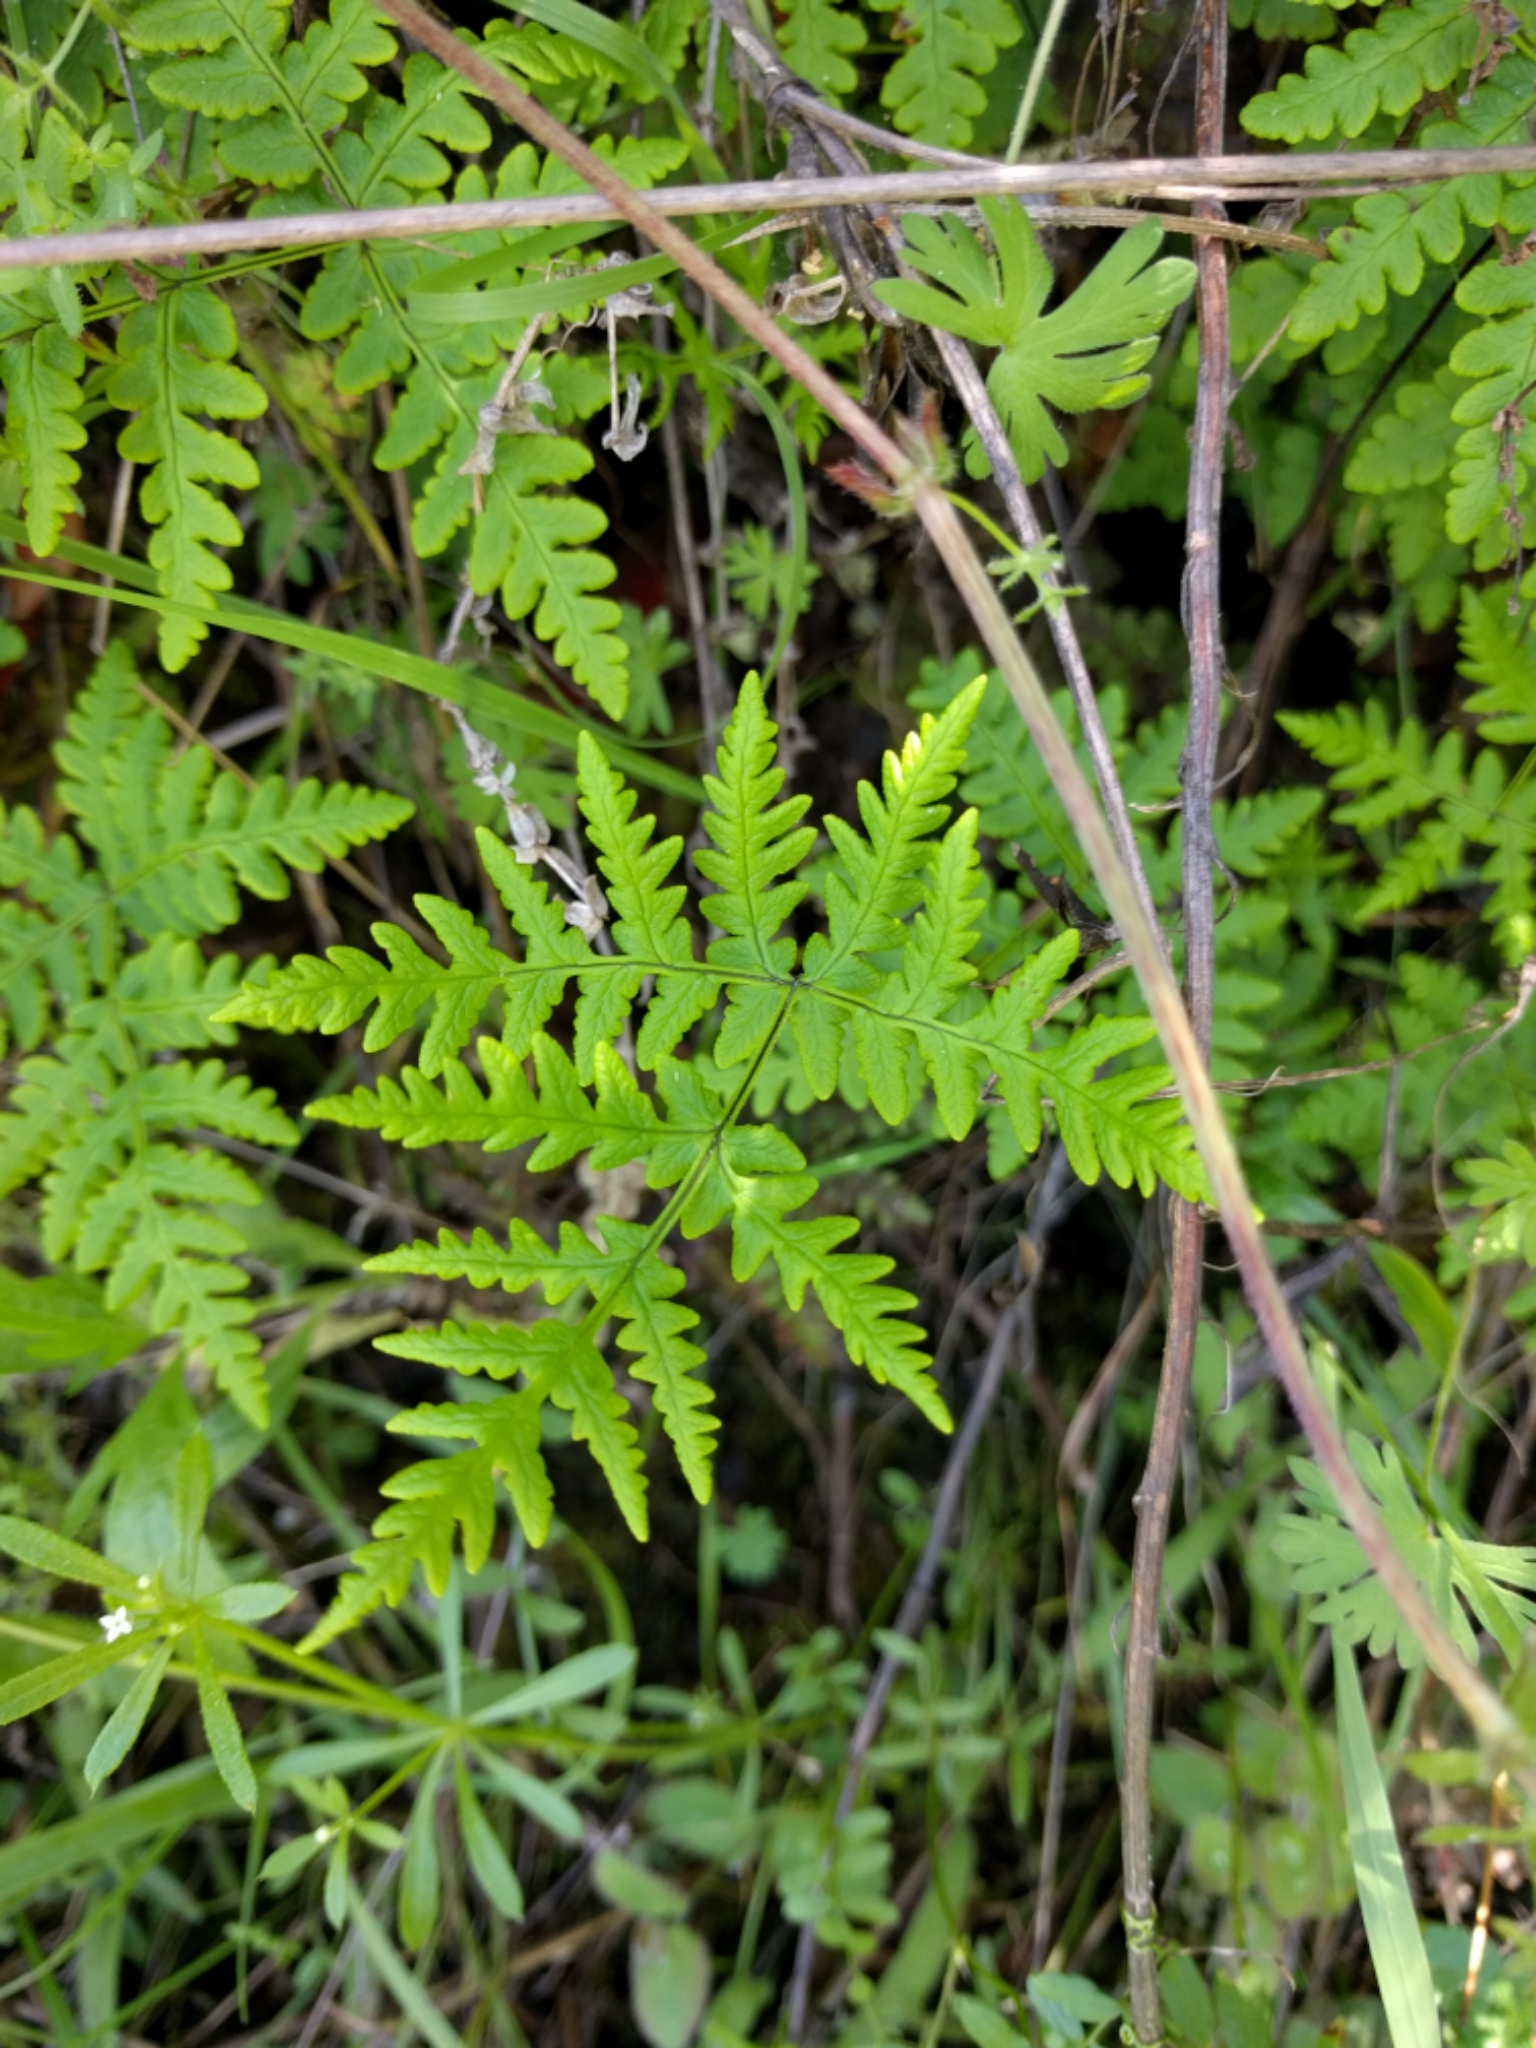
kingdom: Plantae
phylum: Tracheophyta
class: Polypodiopsida
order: Polypodiales
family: Pteridaceae
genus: Pentagramma
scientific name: Pentagramma triangularis
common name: Gold fern
